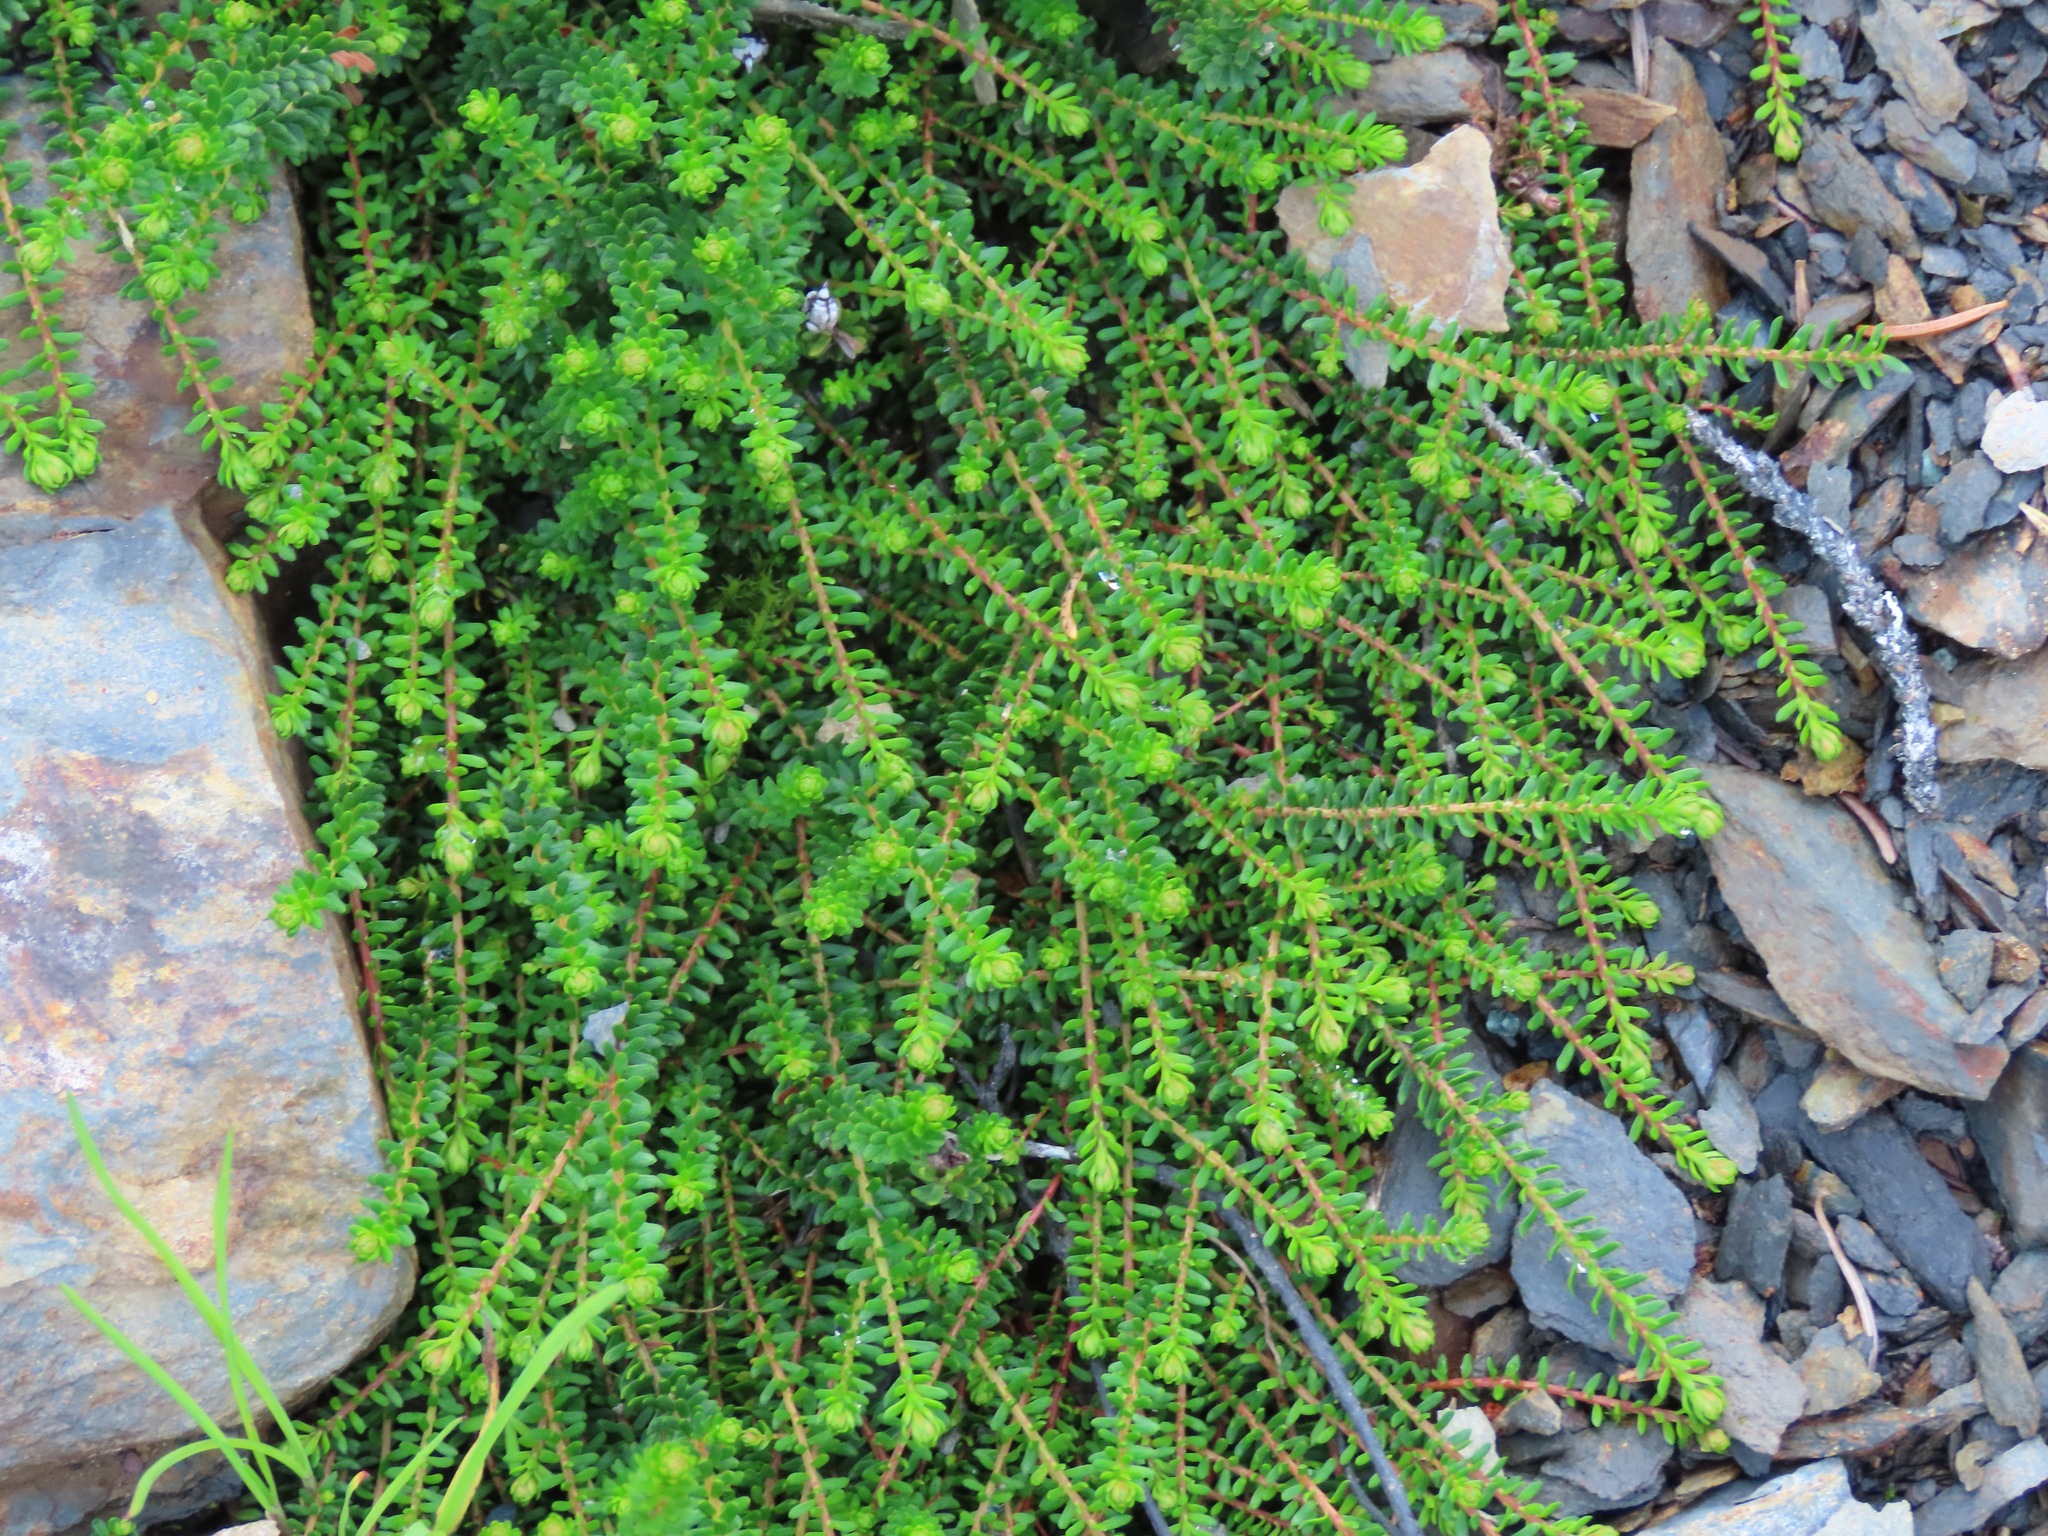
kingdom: Plantae
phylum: Tracheophyta
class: Magnoliopsida
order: Ericales
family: Ericaceae
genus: Empetrum
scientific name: Empetrum nigrum
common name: Black crowberry
